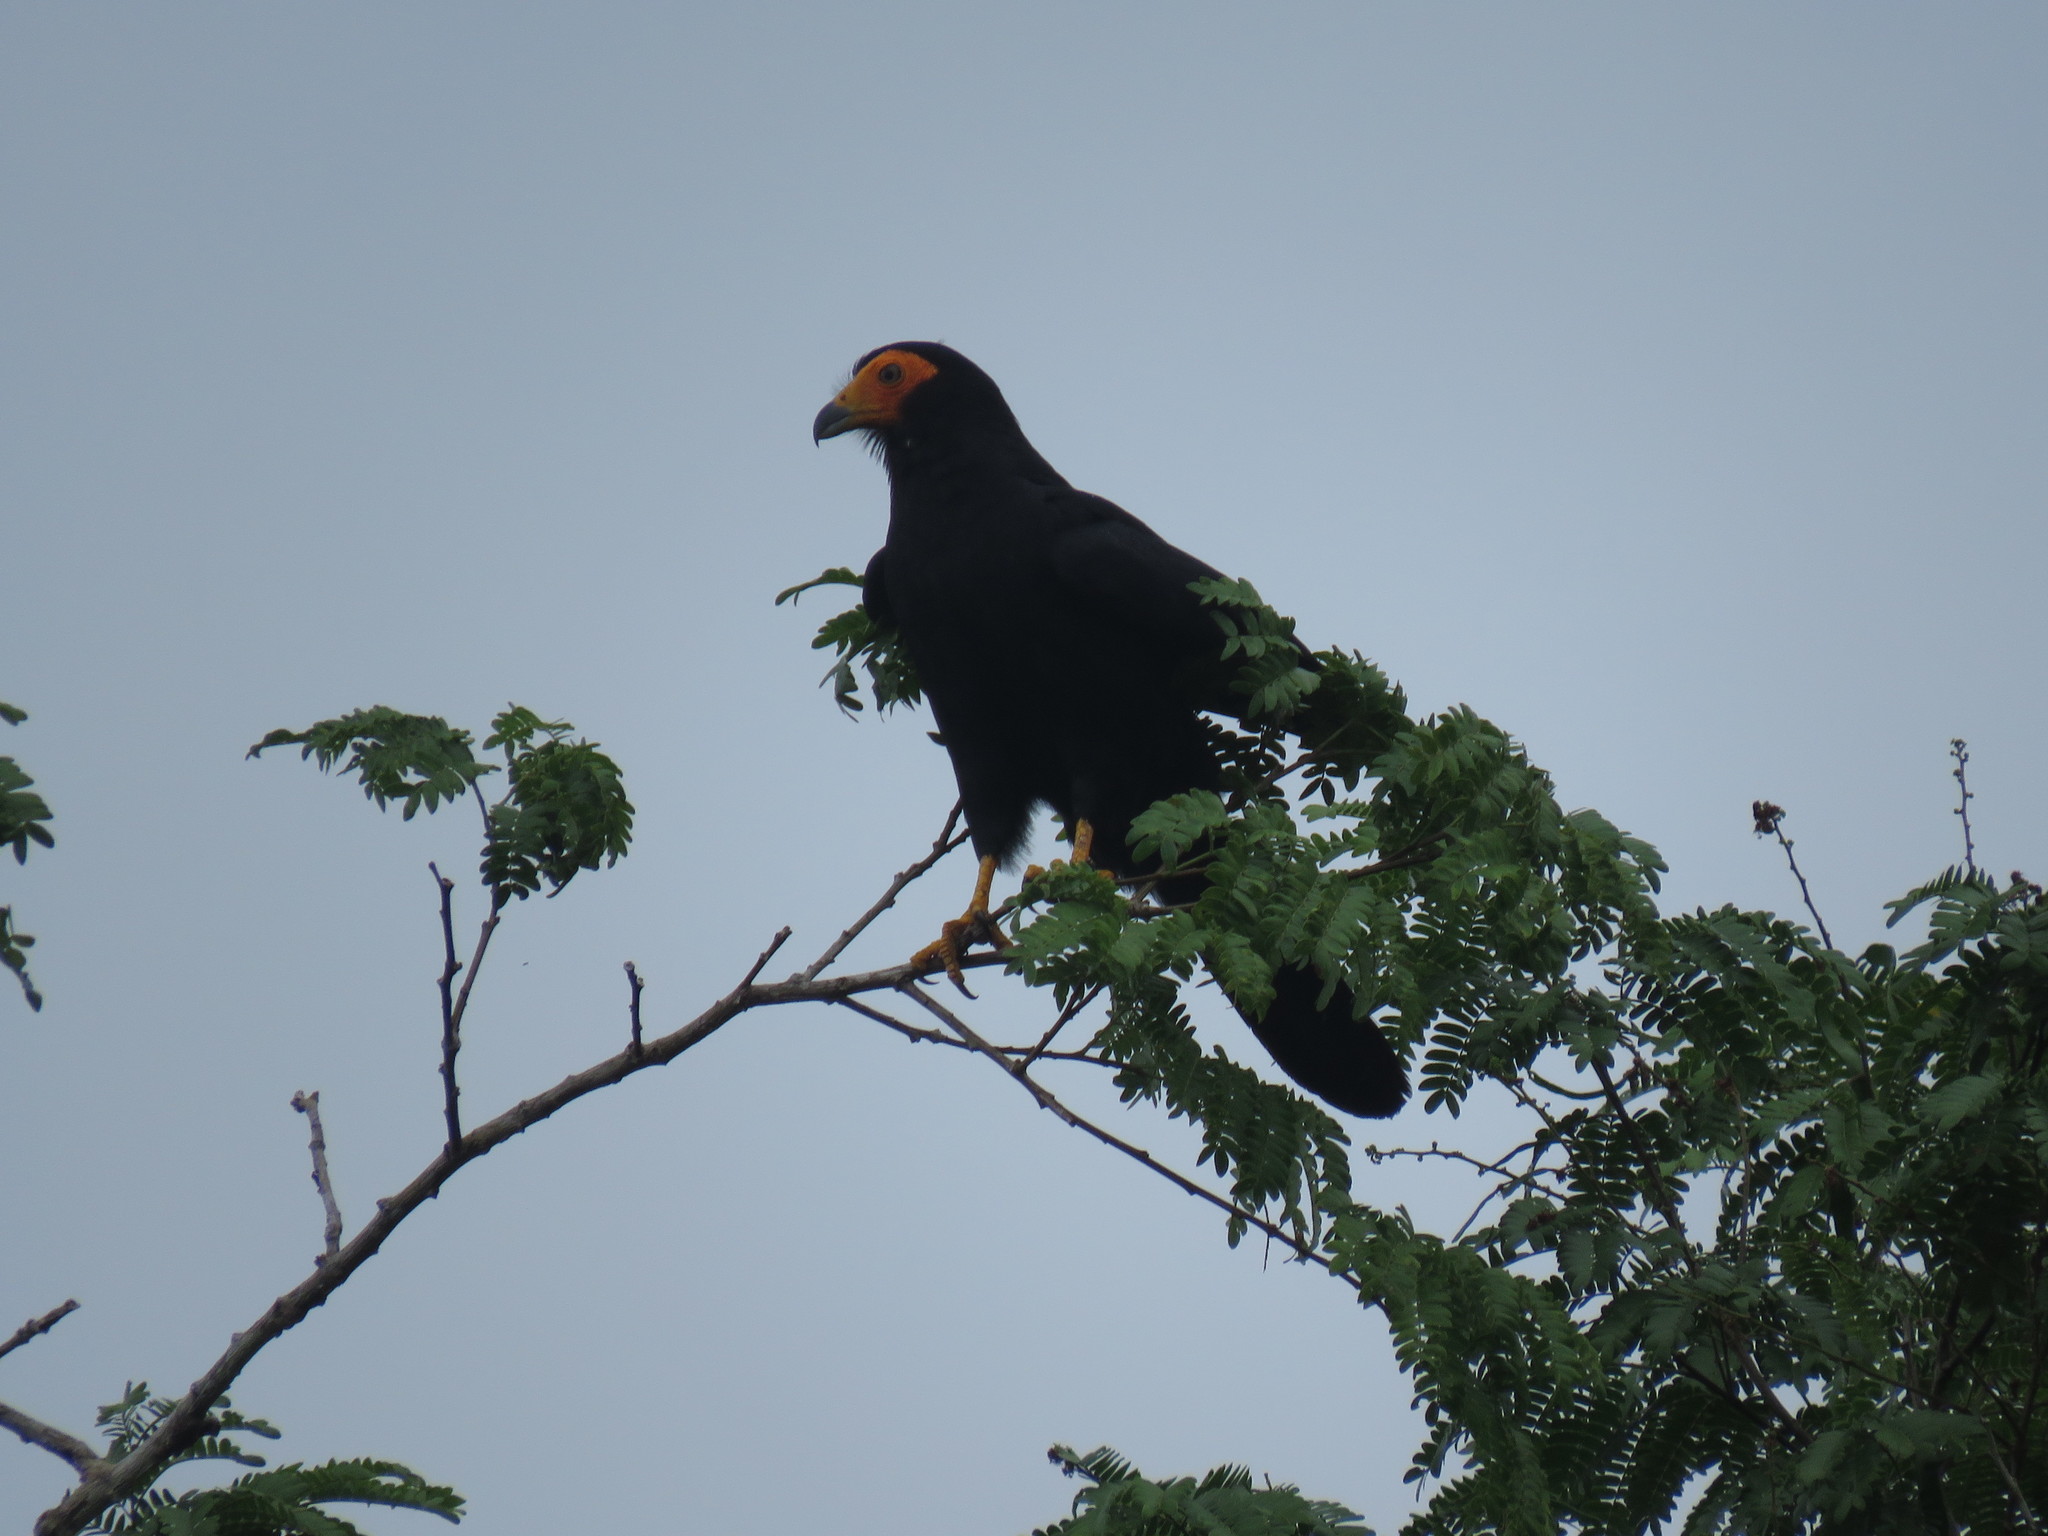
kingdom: Animalia
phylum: Chordata
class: Aves
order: Falconiformes
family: Falconidae
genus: Daptrius
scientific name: Daptrius ater
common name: Black caracara
